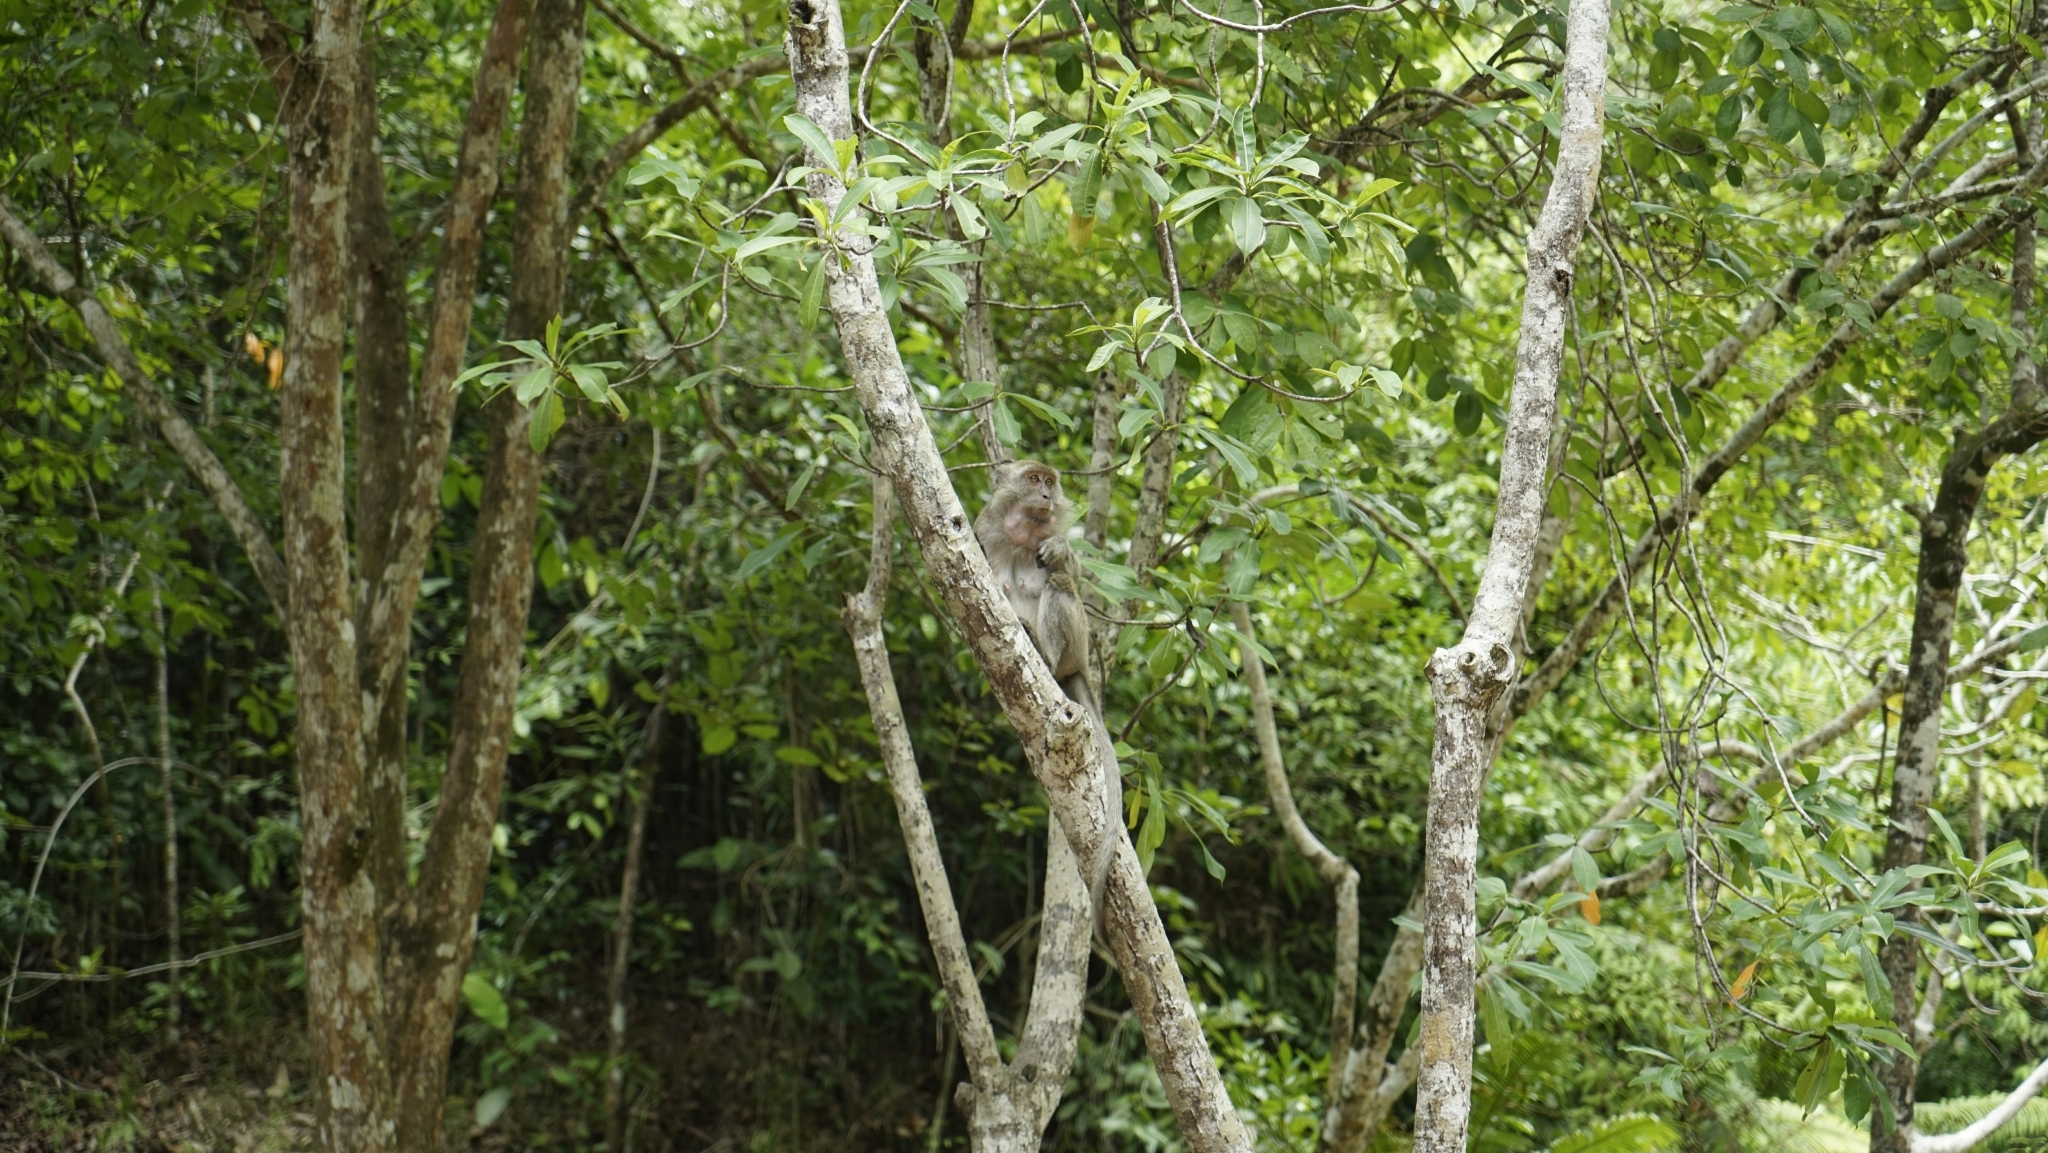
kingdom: Animalia
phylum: Chordata
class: Mammalia
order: Primates
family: Cercopithecidae
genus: Macaca
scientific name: Macaca fascicularis
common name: Crab-eating macaque
